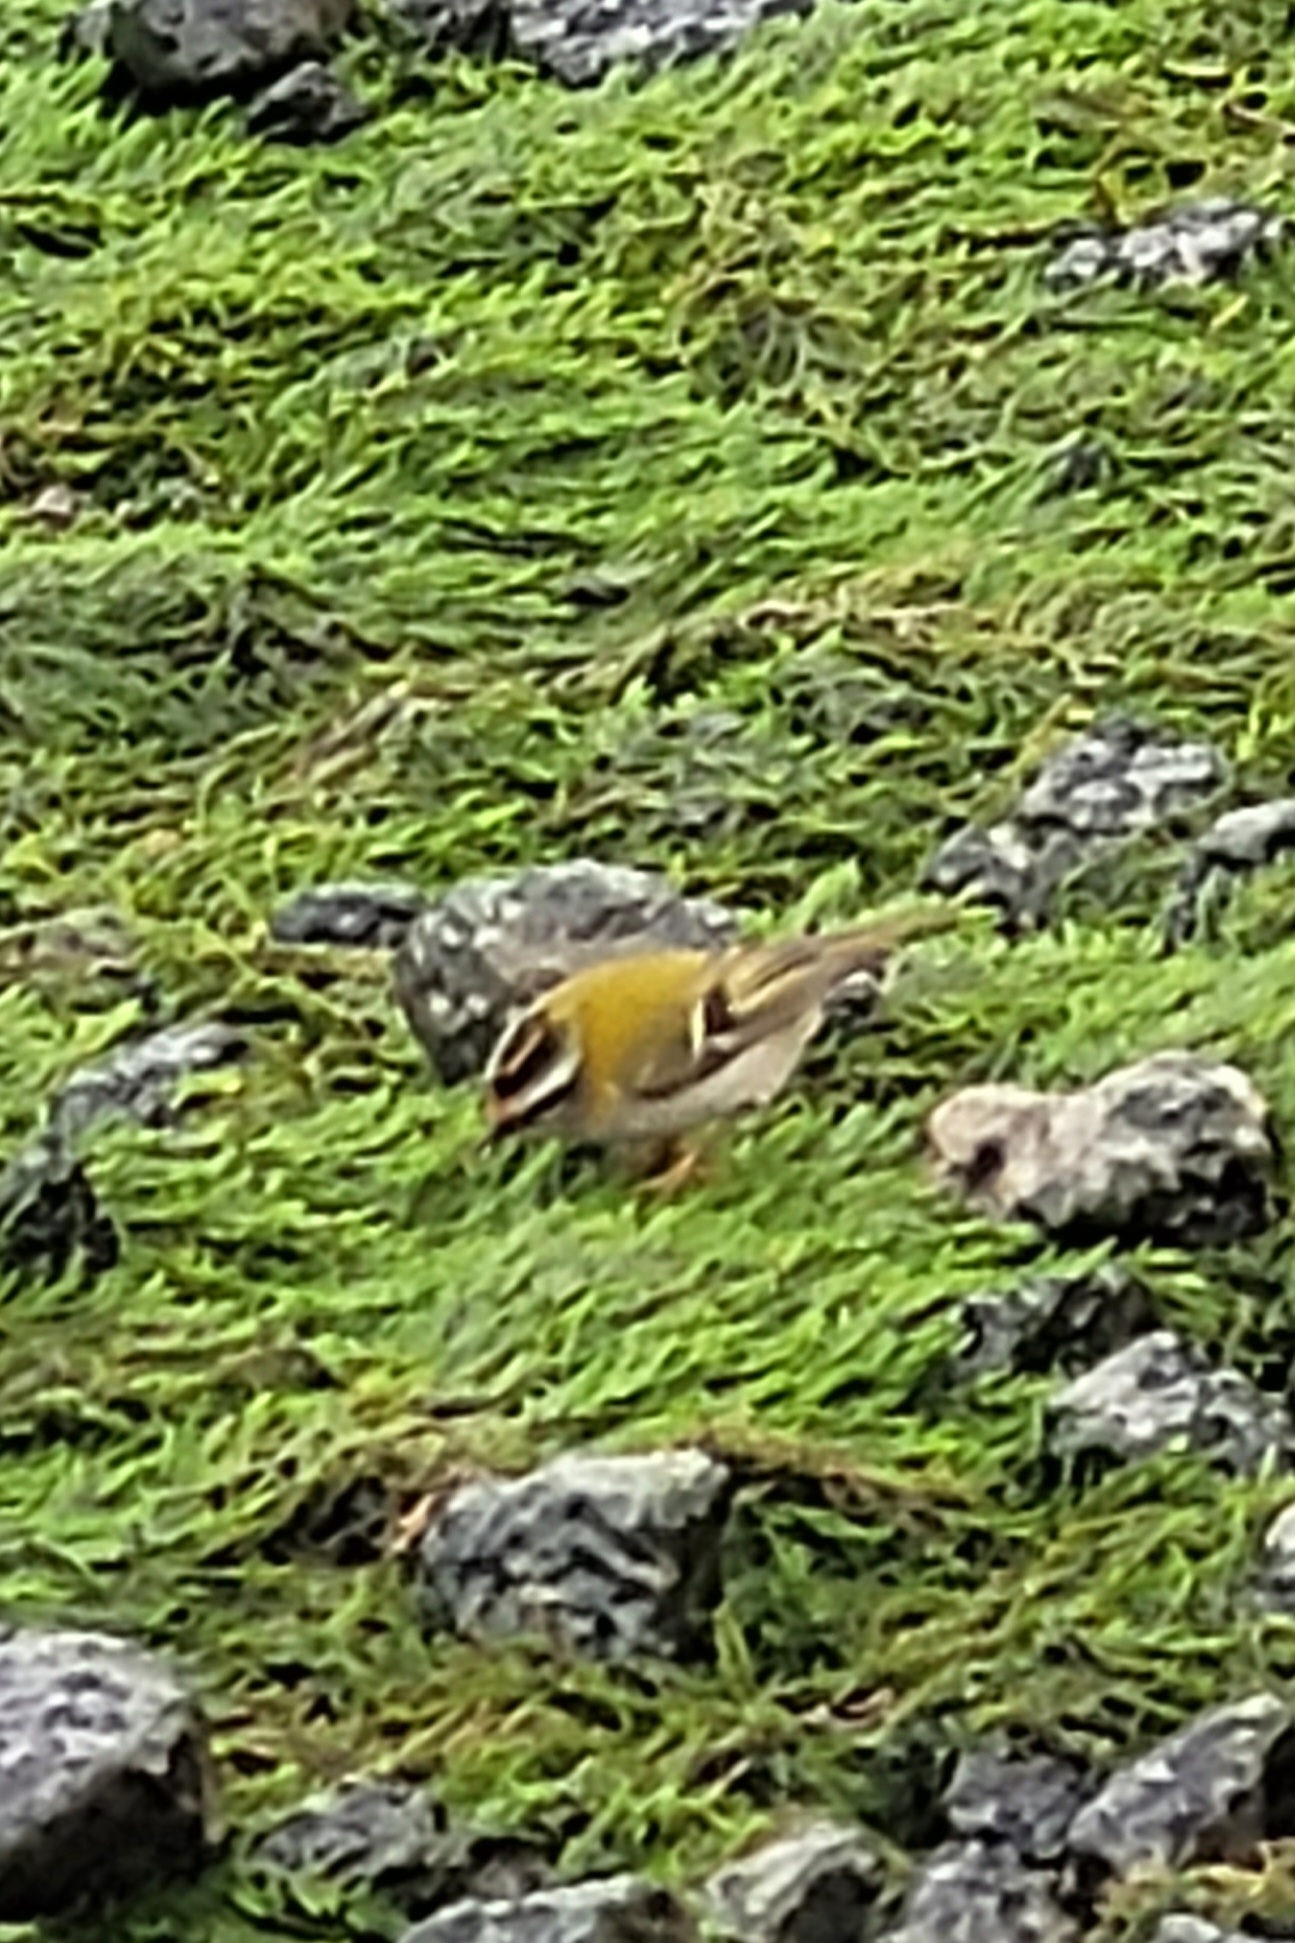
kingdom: Animalia
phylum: Chordata
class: Aves
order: Passeriformes
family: Regulidae
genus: Regulus
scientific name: Regulus ignicapilla
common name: Firecrest
